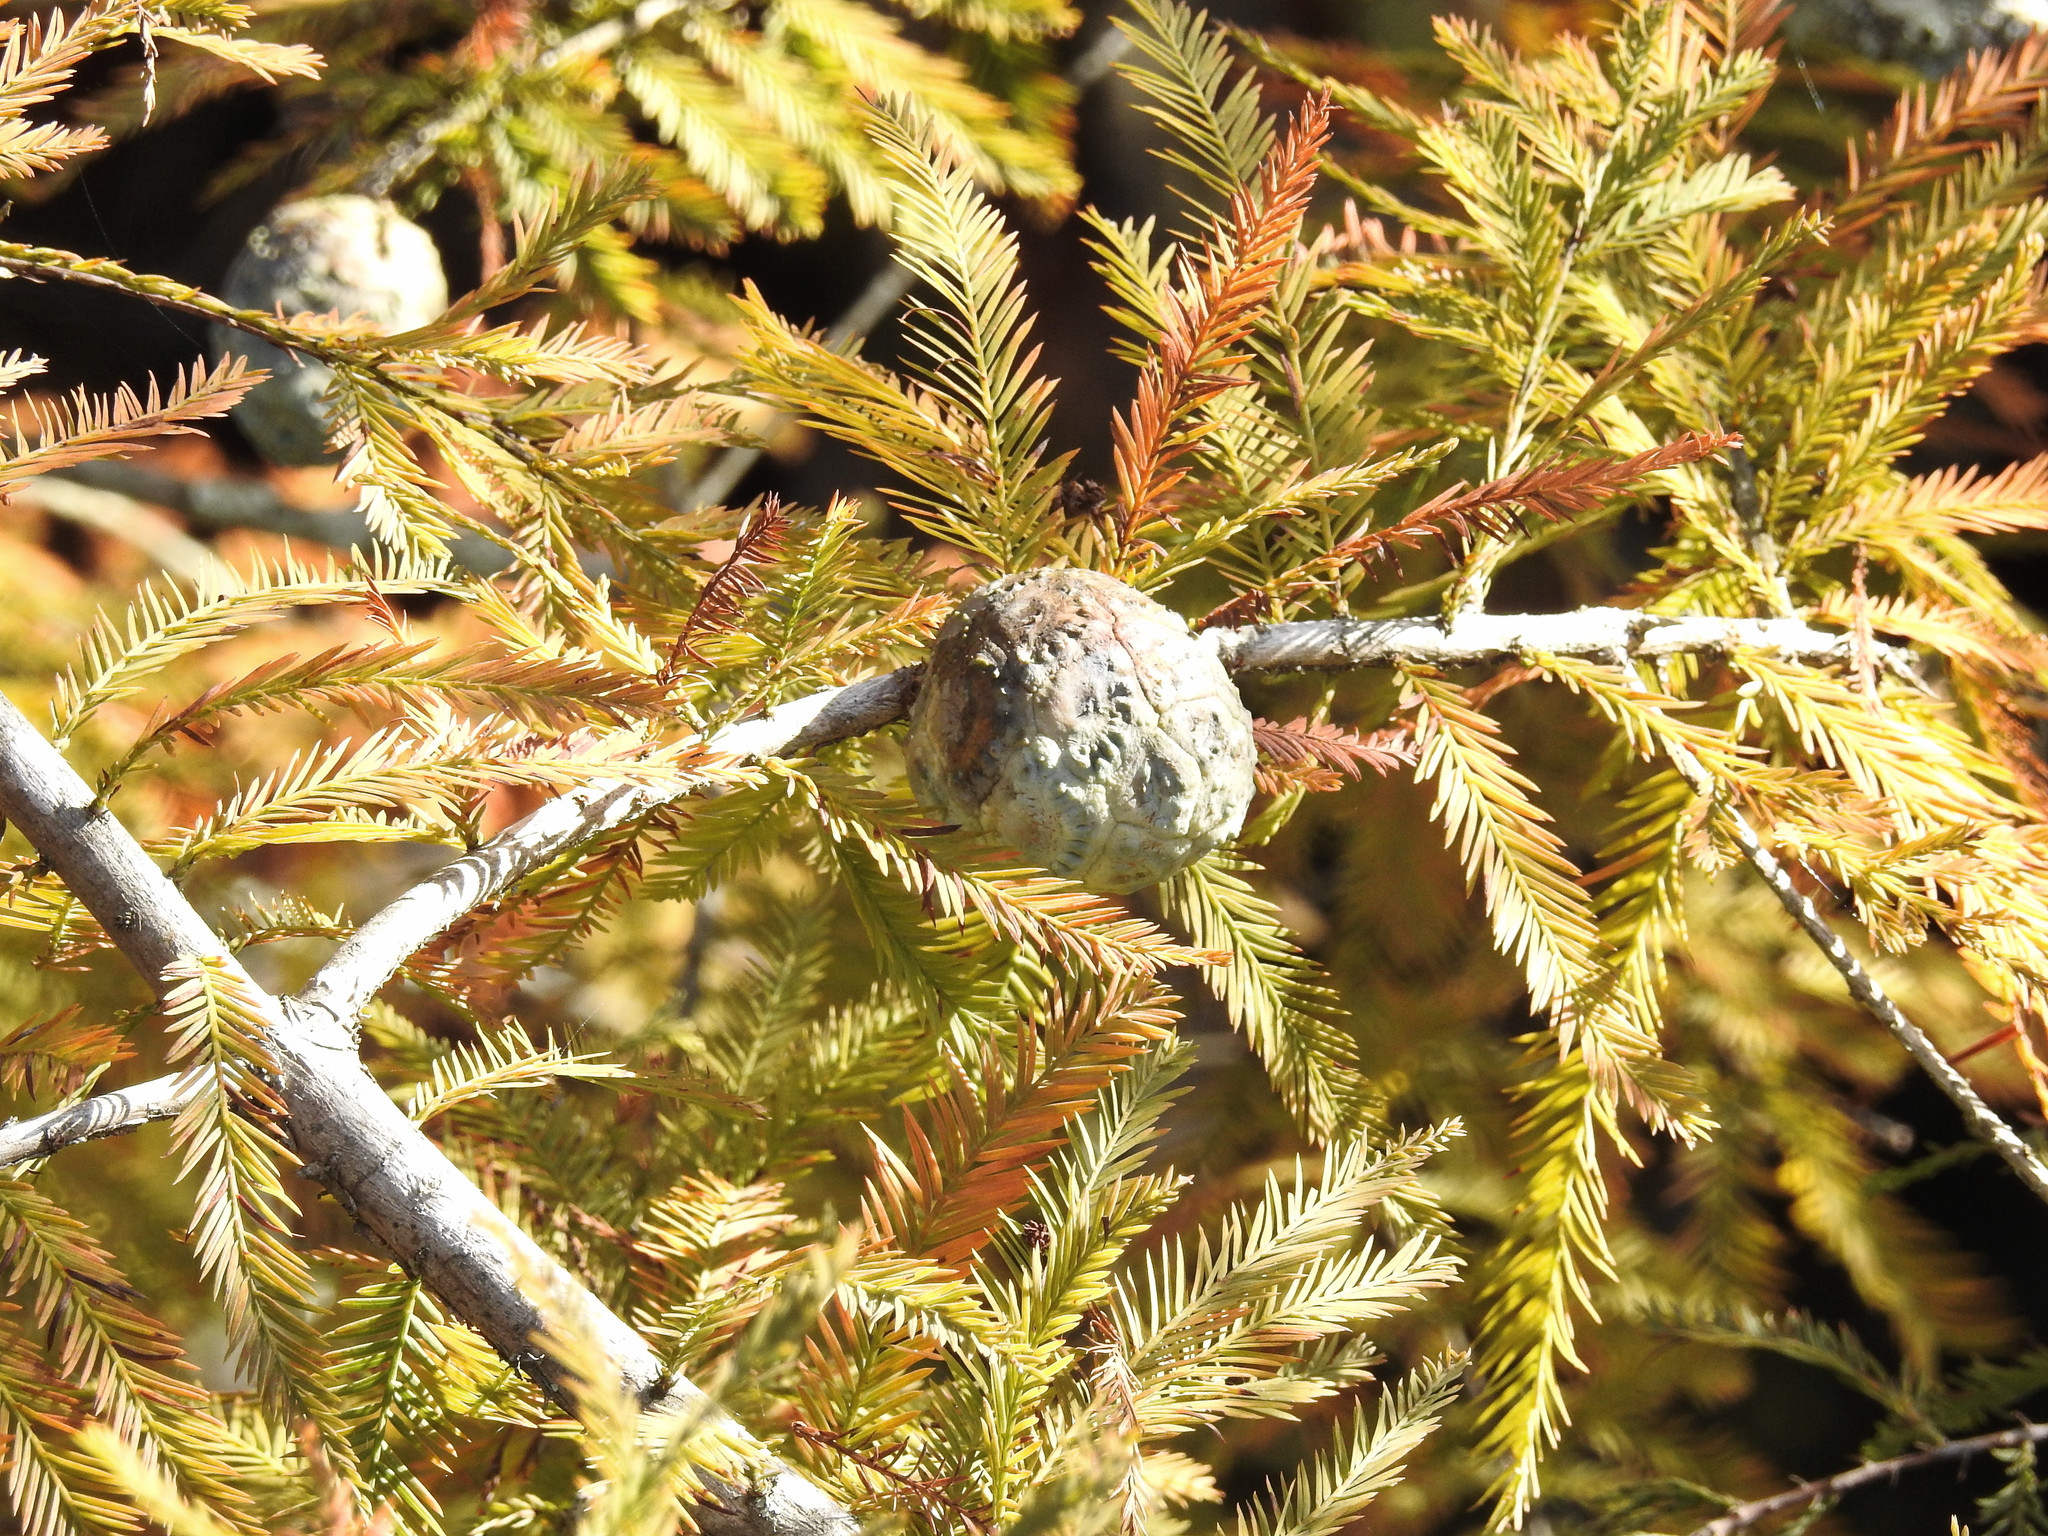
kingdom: Plantae
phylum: Tracheophyta
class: Pinopsida
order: Pinales
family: Cupressaceae
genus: Taxodium
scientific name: Taxodium distichum
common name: Bald cypress
